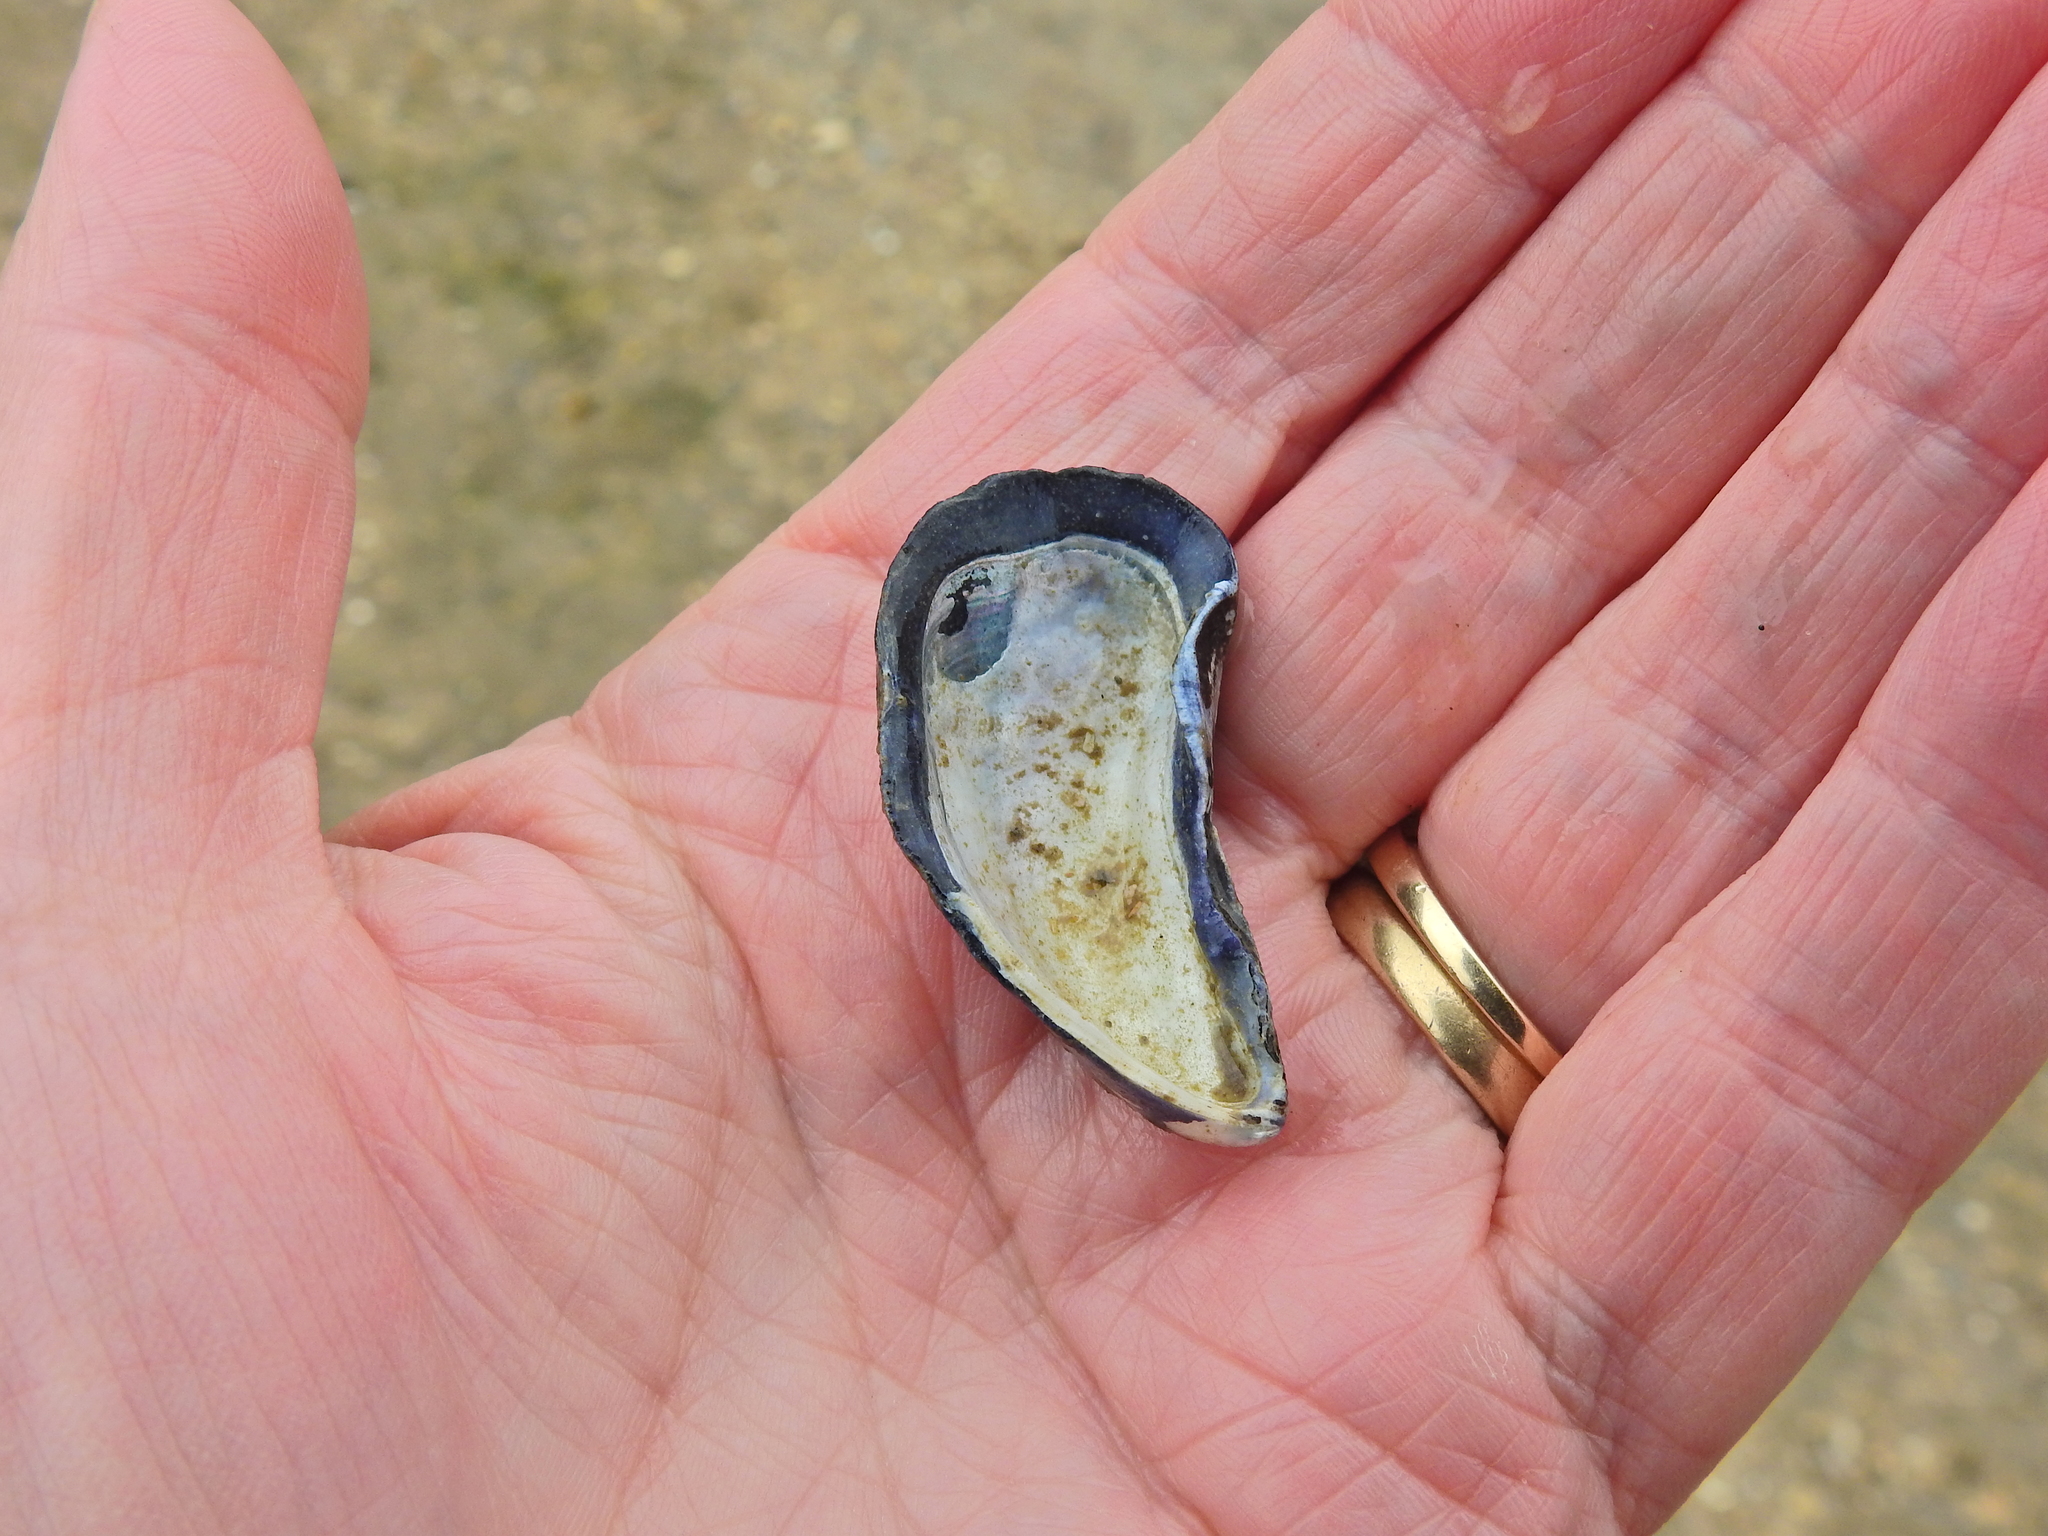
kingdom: Animalia
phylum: Mollusca
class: Bivalvia
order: Mytilida
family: Mytilidae
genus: Mytilus
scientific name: Mytilus edulis
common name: Blue mussel
